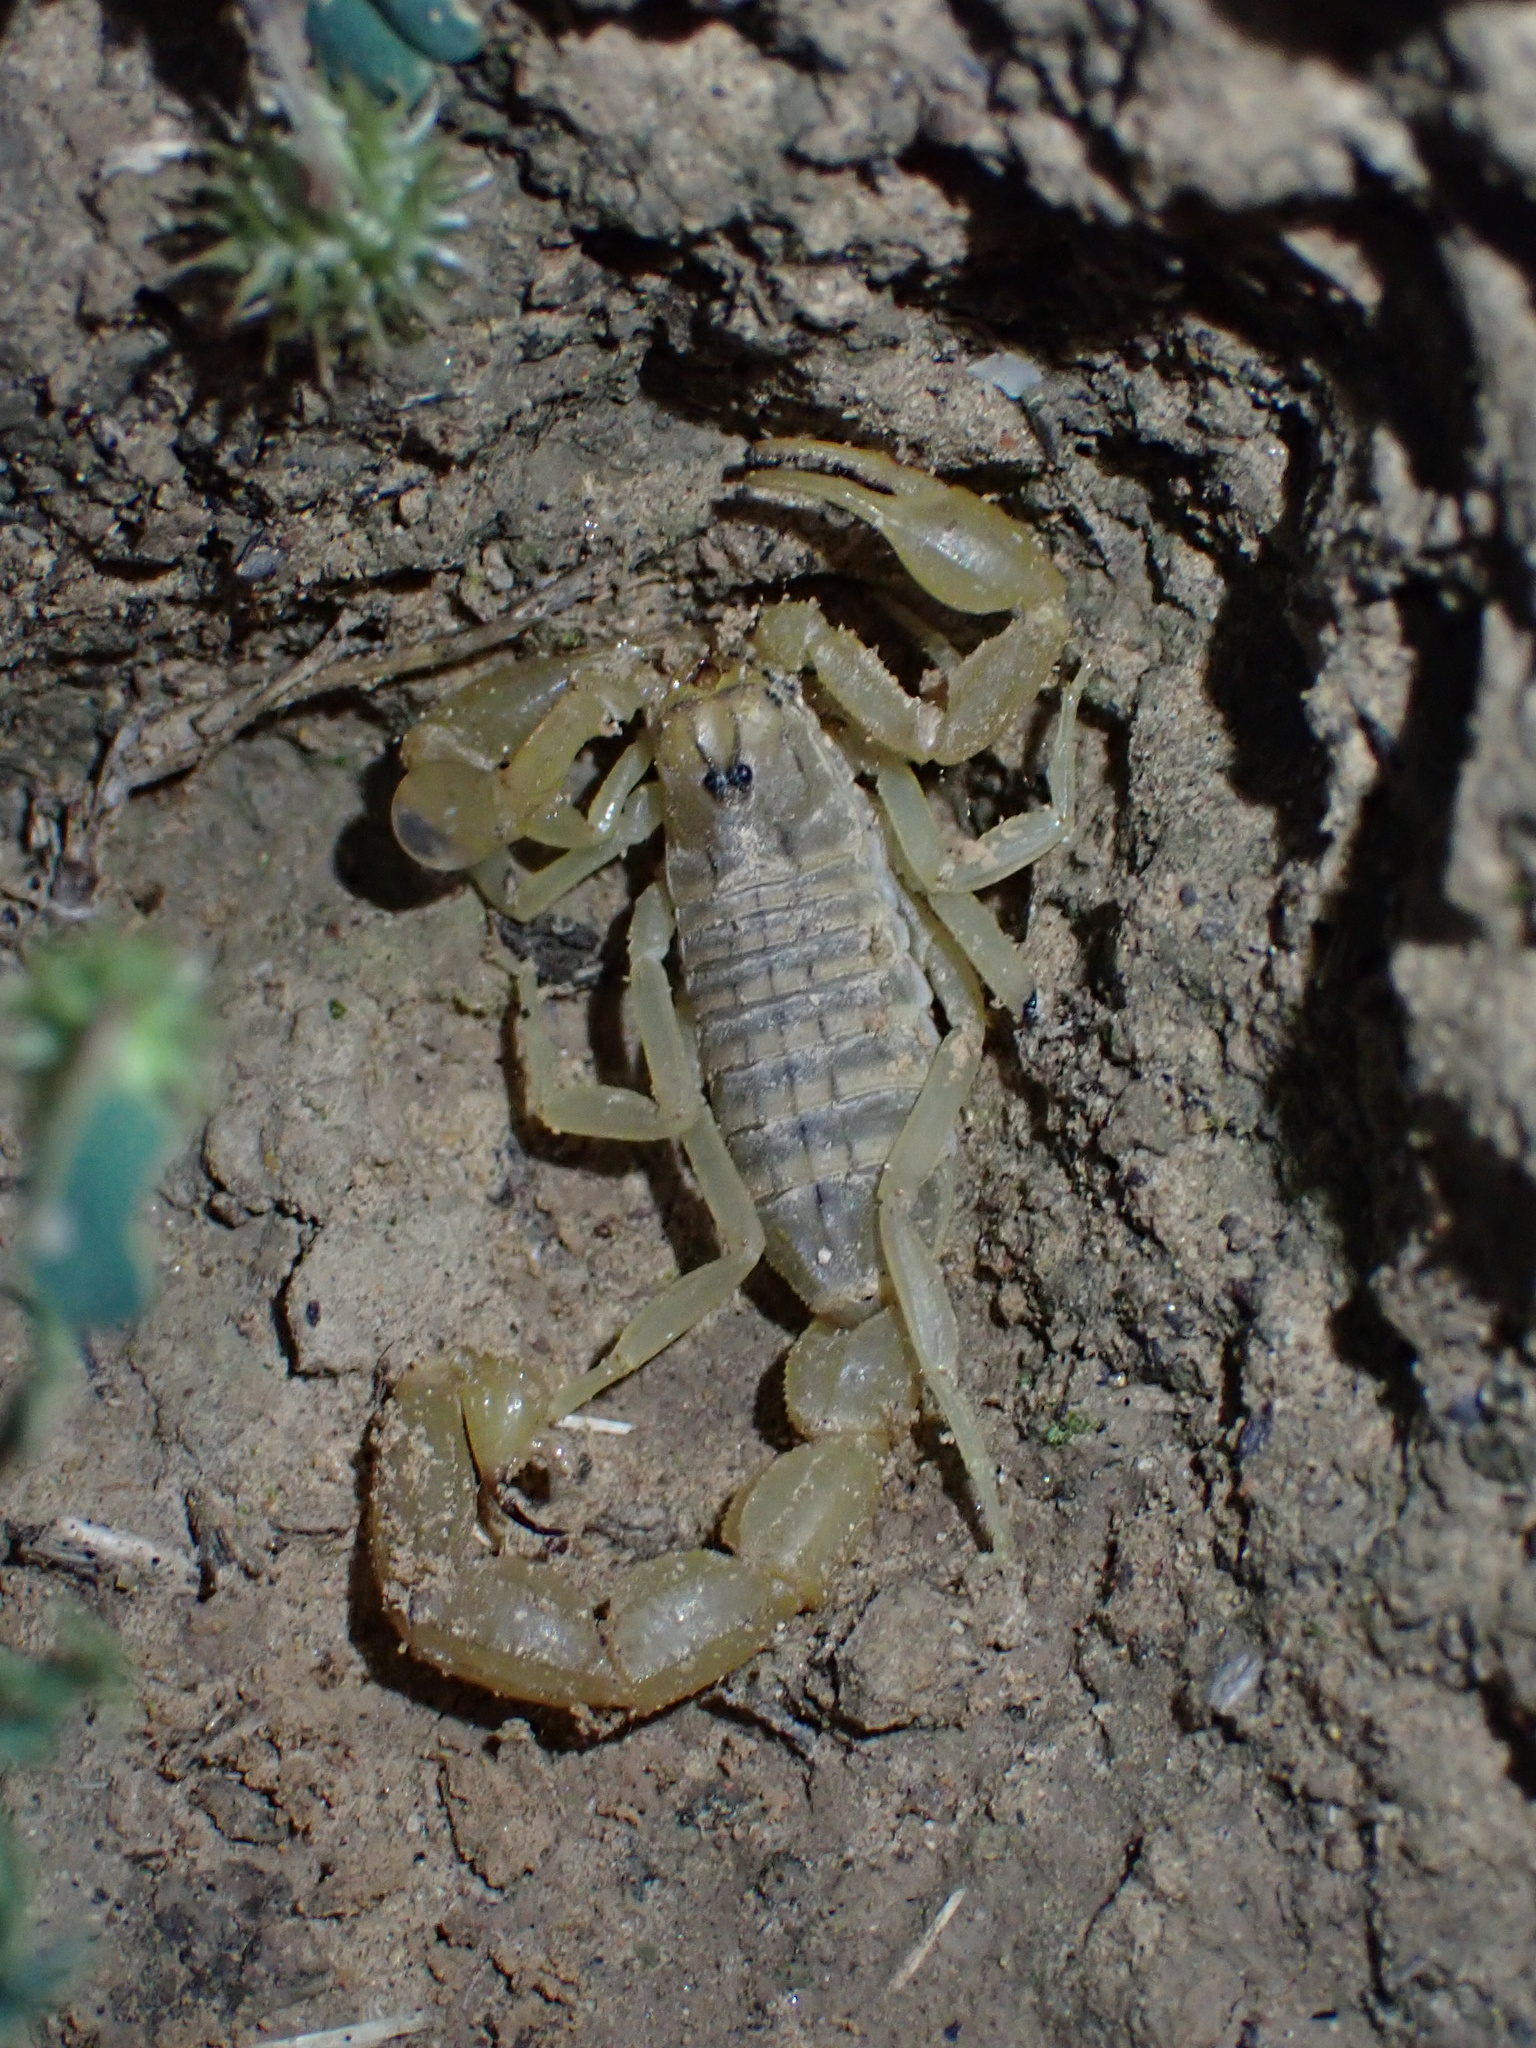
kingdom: Animalia
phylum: Arthropoda
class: Arachnida
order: Scorpiones
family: Buthidae
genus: Mesobuthus
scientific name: Mesobuthus crucittii
